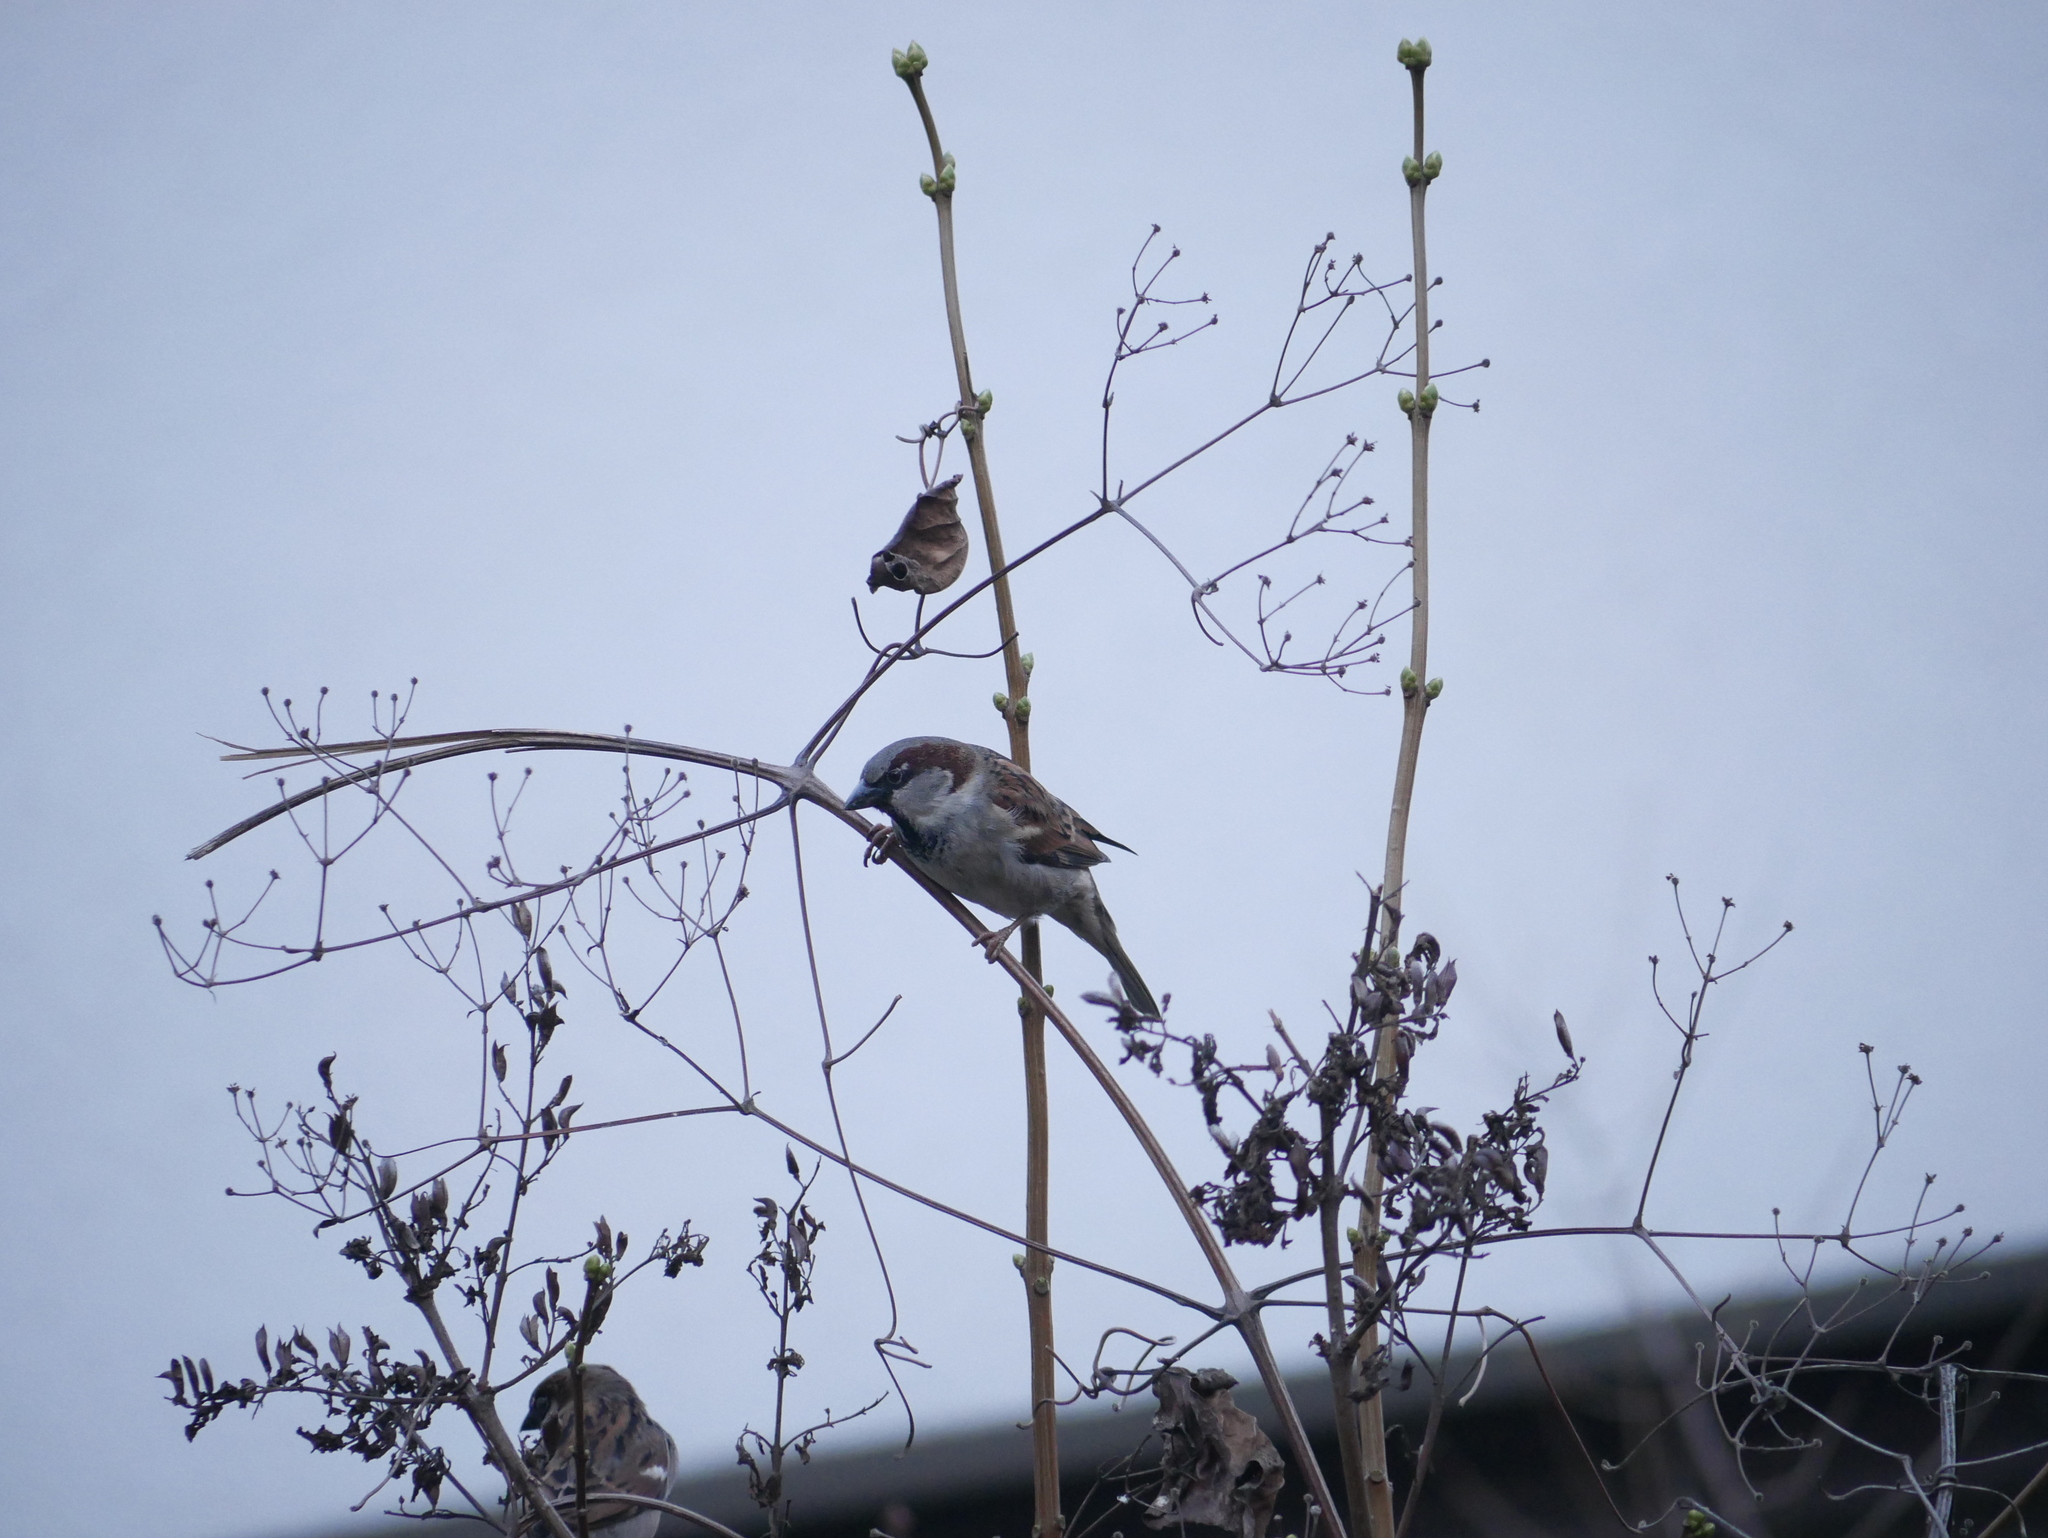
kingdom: Animalia
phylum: Chordata
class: Aves
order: Passeriformes
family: Passeridae
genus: Passer
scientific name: Passer domesticus
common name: House sparrow
